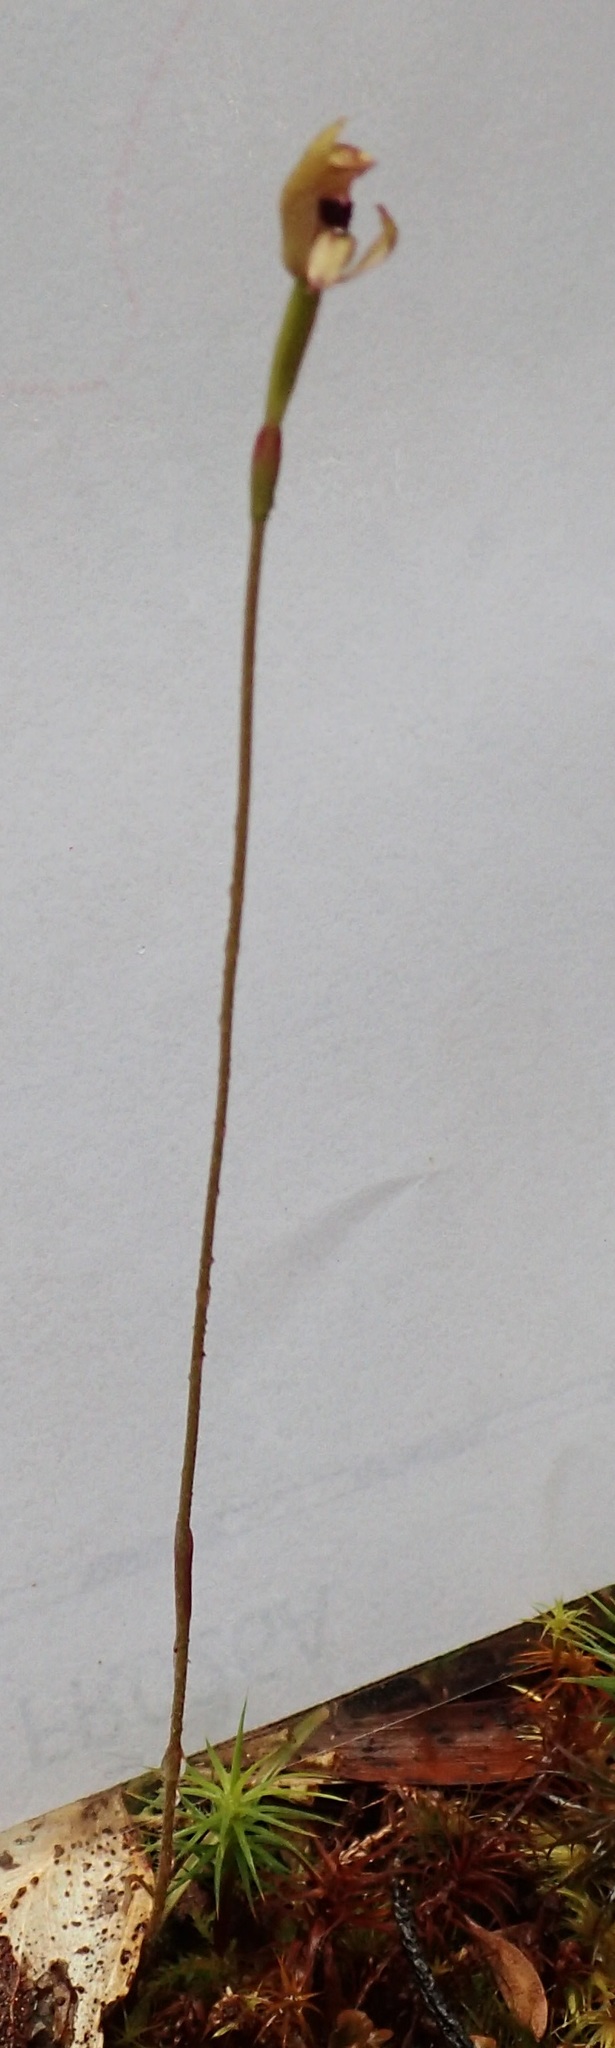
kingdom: Plantae
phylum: Tracheophyta
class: Liliopsida
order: Asparagales
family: Orchidaceae
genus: Caladenia
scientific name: Caladenia transitoria
